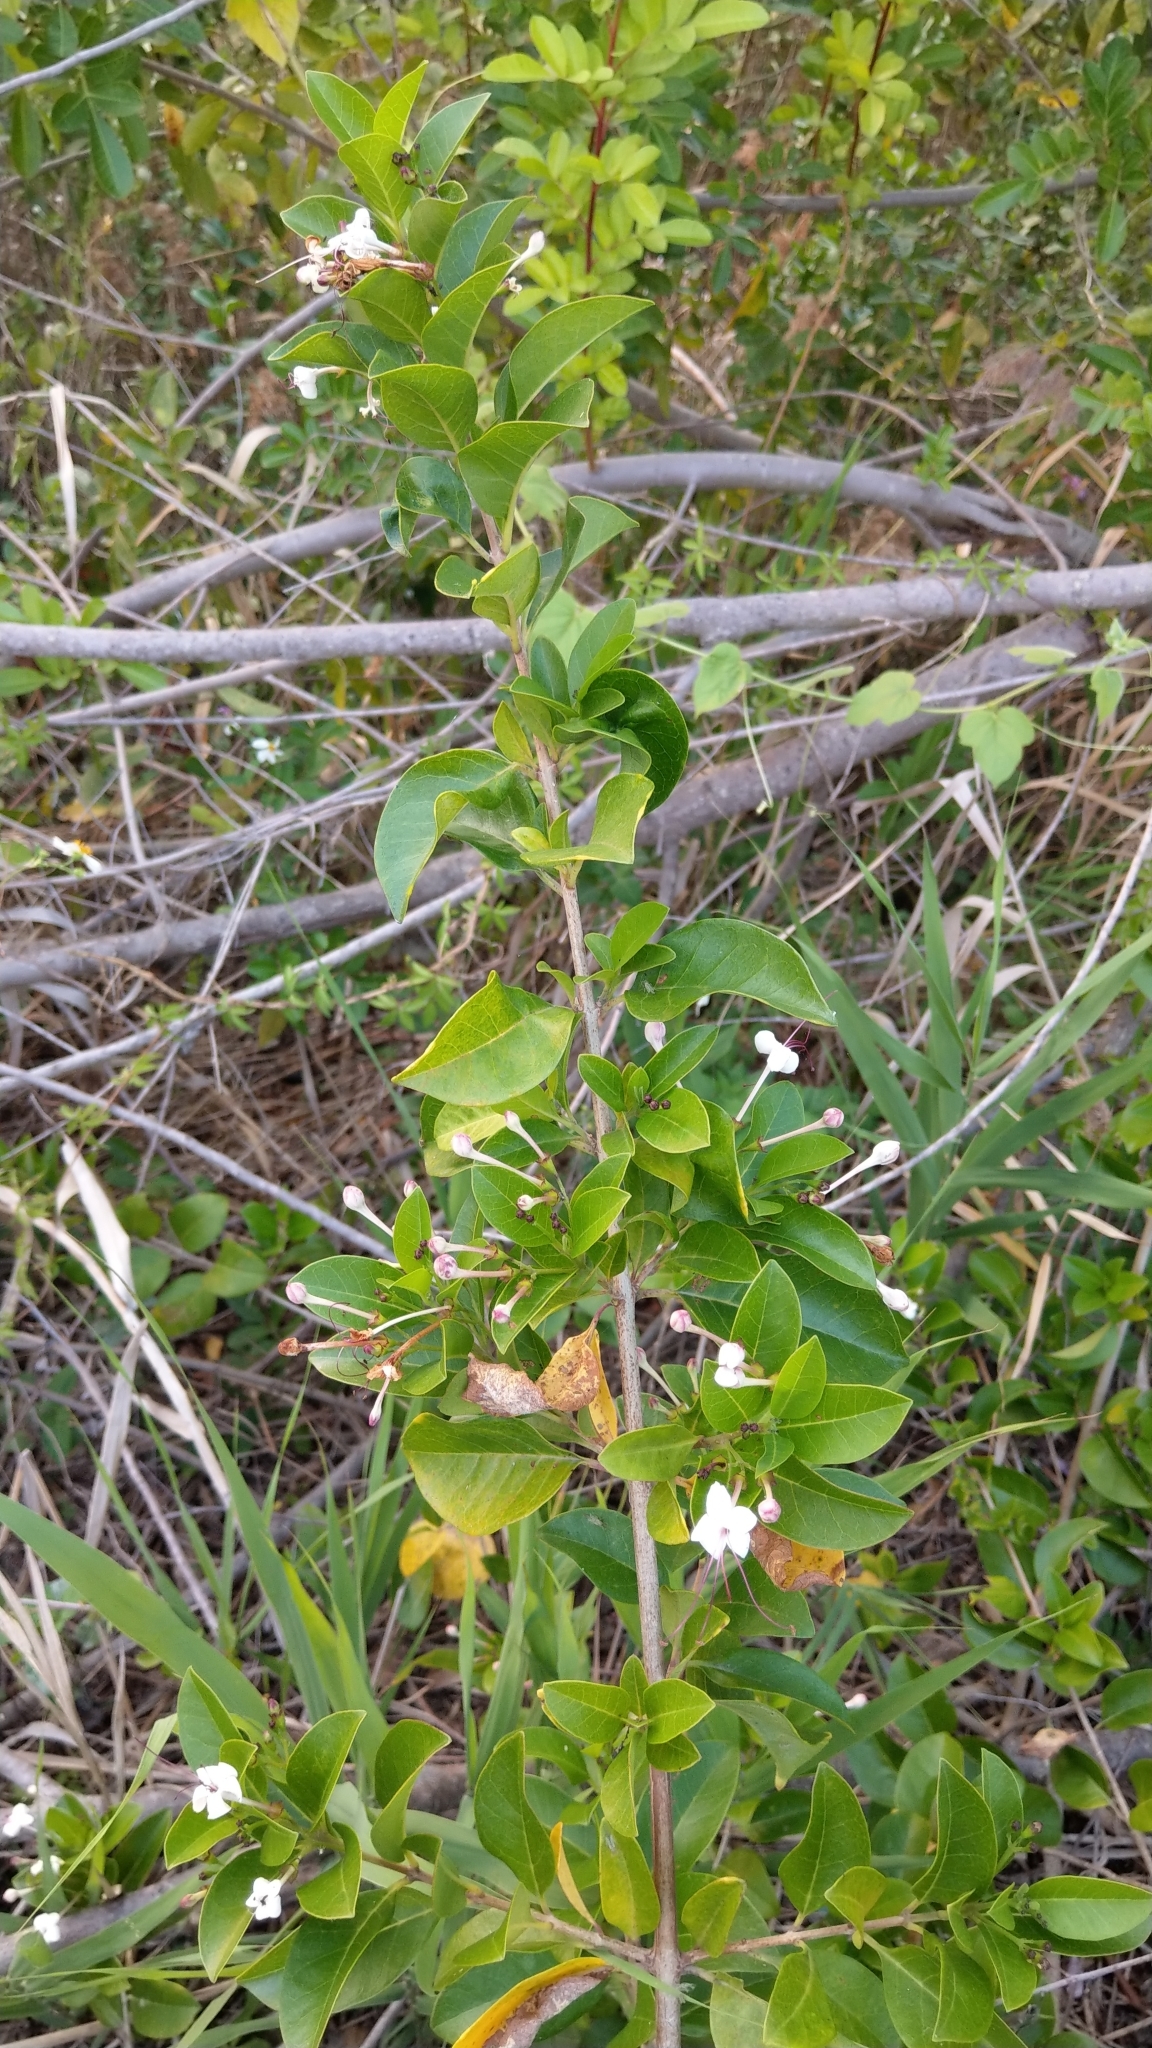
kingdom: Plantae
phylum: Tracheophyta
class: Magnoliopsida
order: Lamiales
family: Lamiaceae
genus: Volkameria
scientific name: Volkameria inermis
